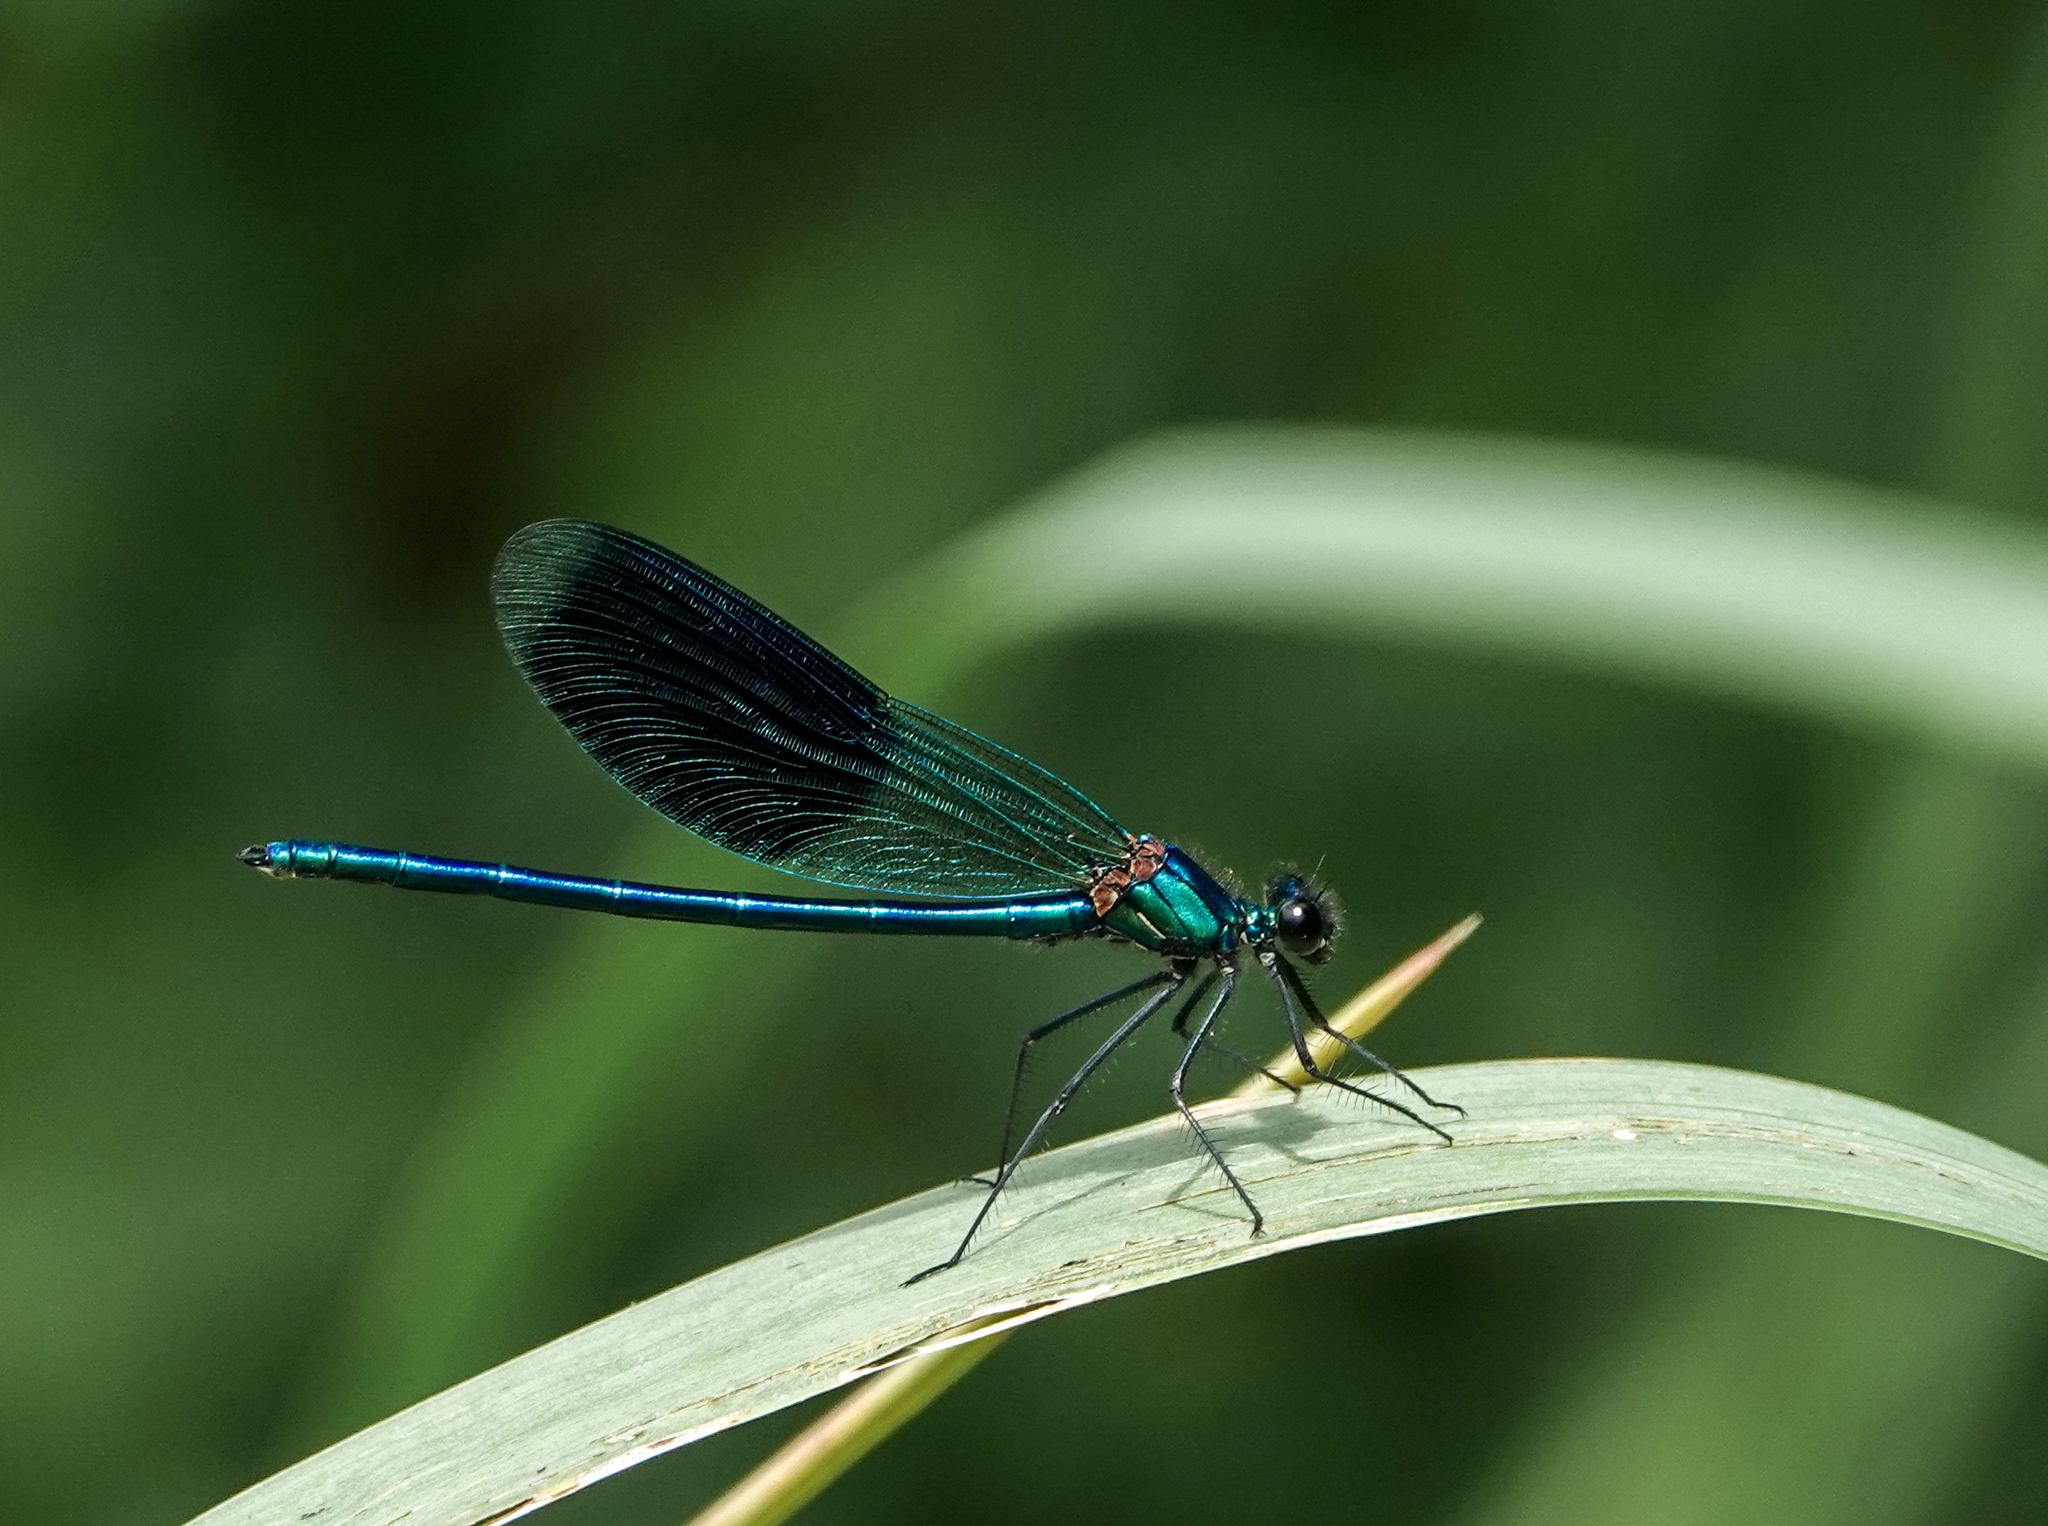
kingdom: Animalia
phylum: Arthropoda
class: Insecta
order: Odonata
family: Calopterygidae
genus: Calopteryx
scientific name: Calopteryx splendens
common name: Banded demoiselle
